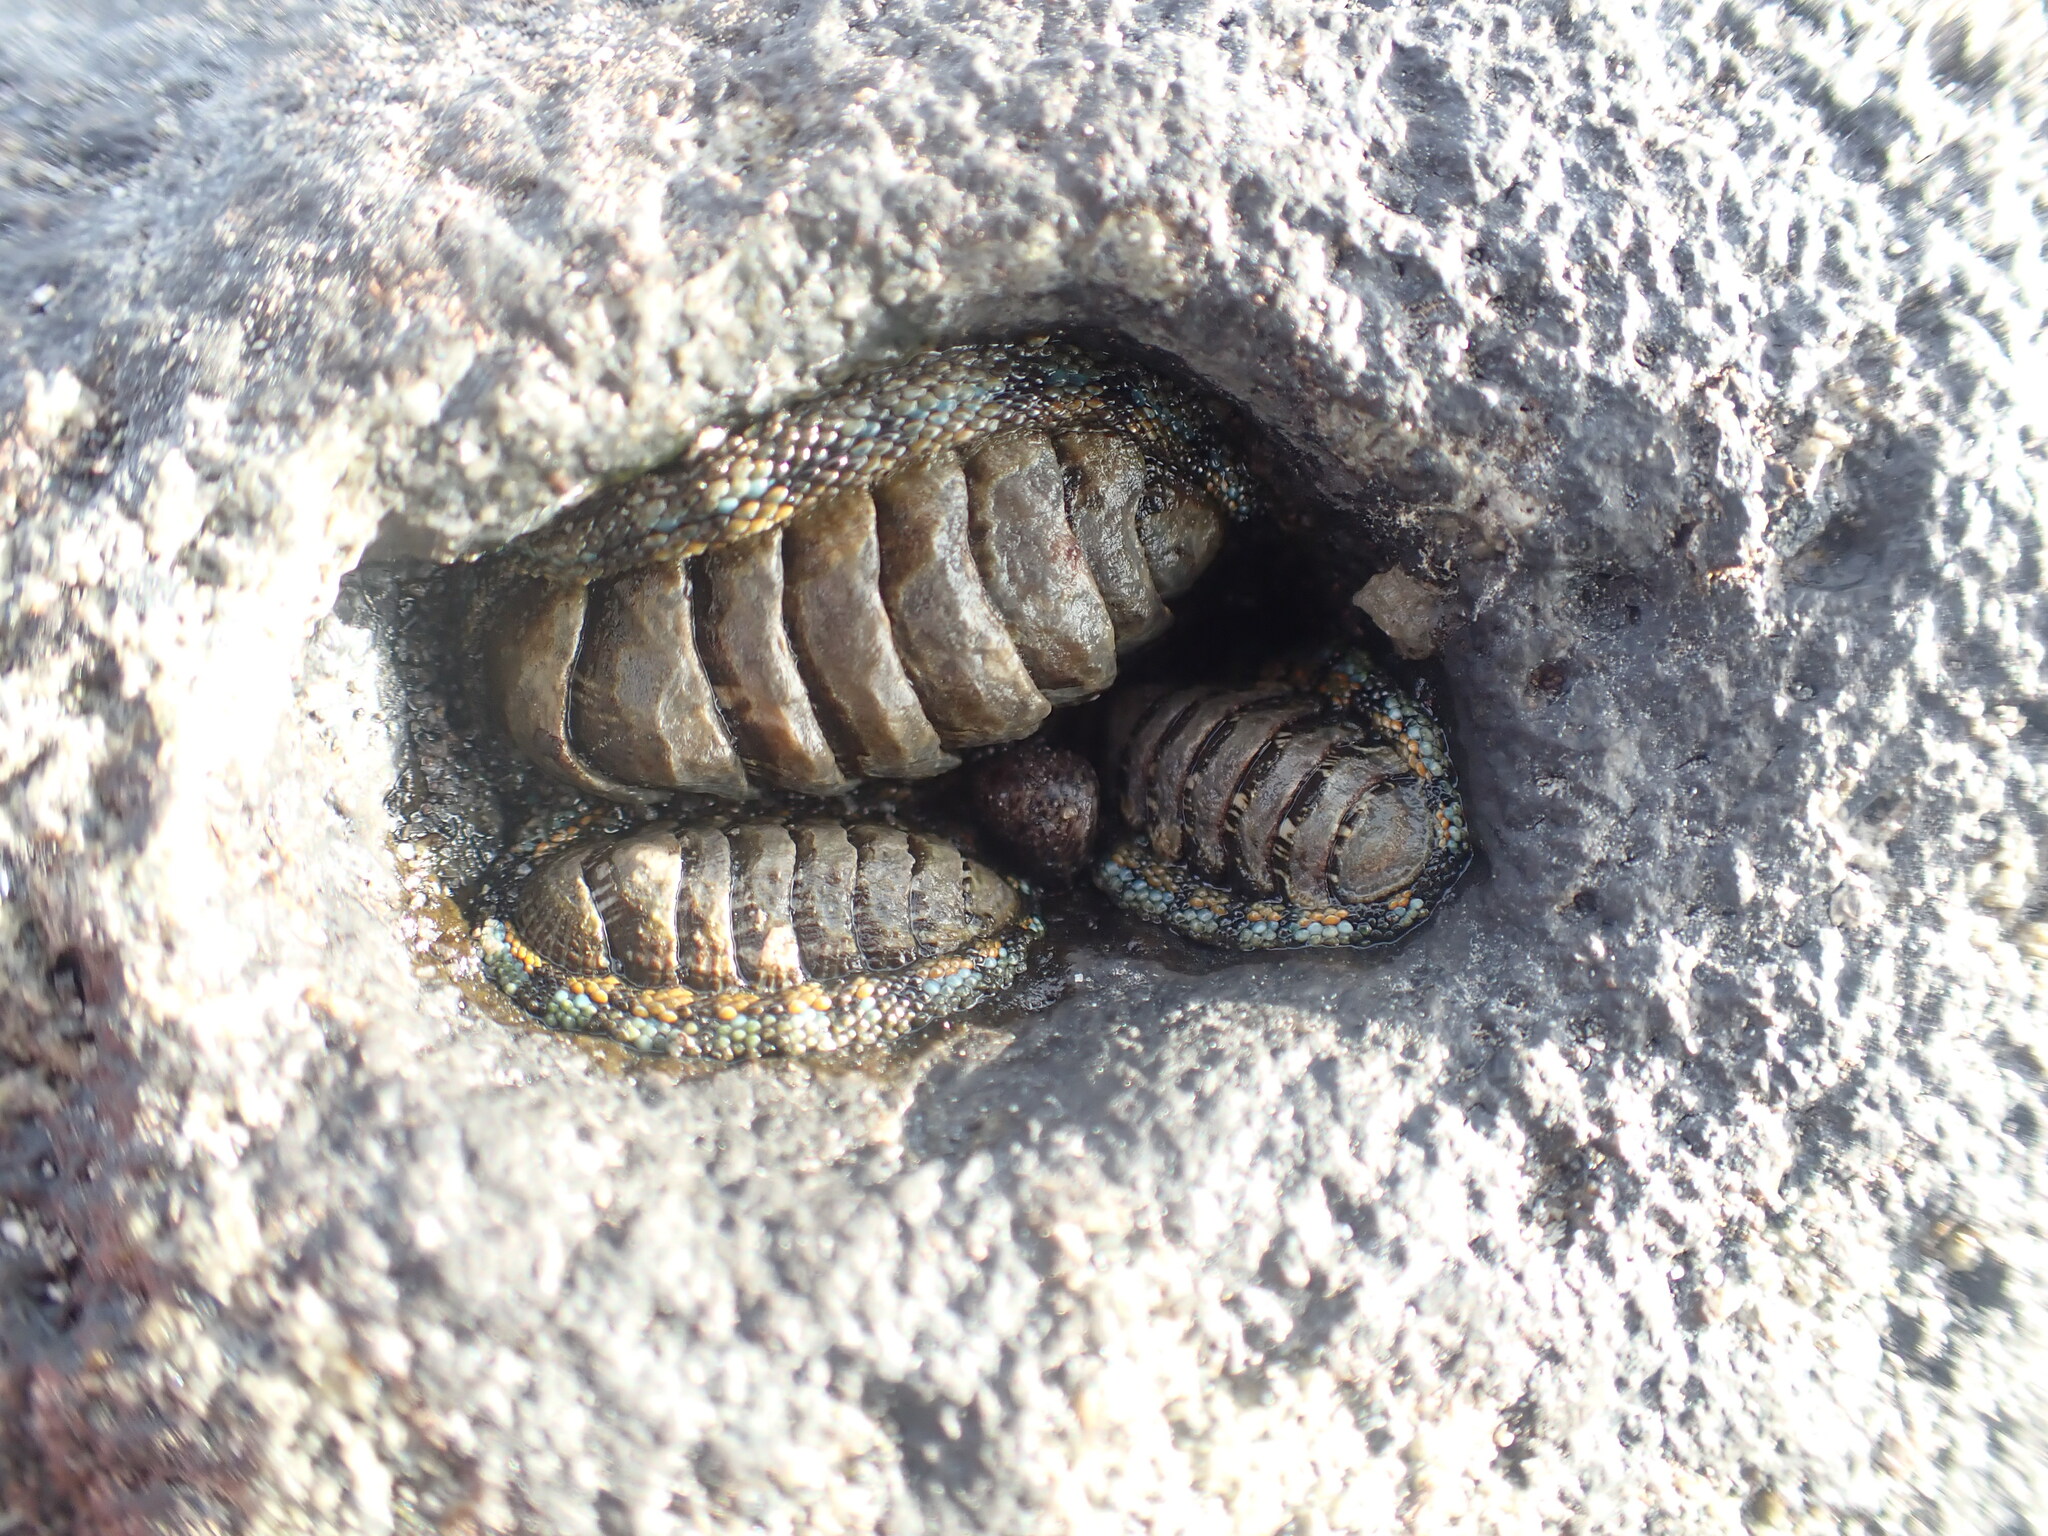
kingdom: Animalia
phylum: Mollusca
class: Polyplacophora
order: Chitonida
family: Chitonidae
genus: Sypharochiton
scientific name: Sypharochiton sinclairi
